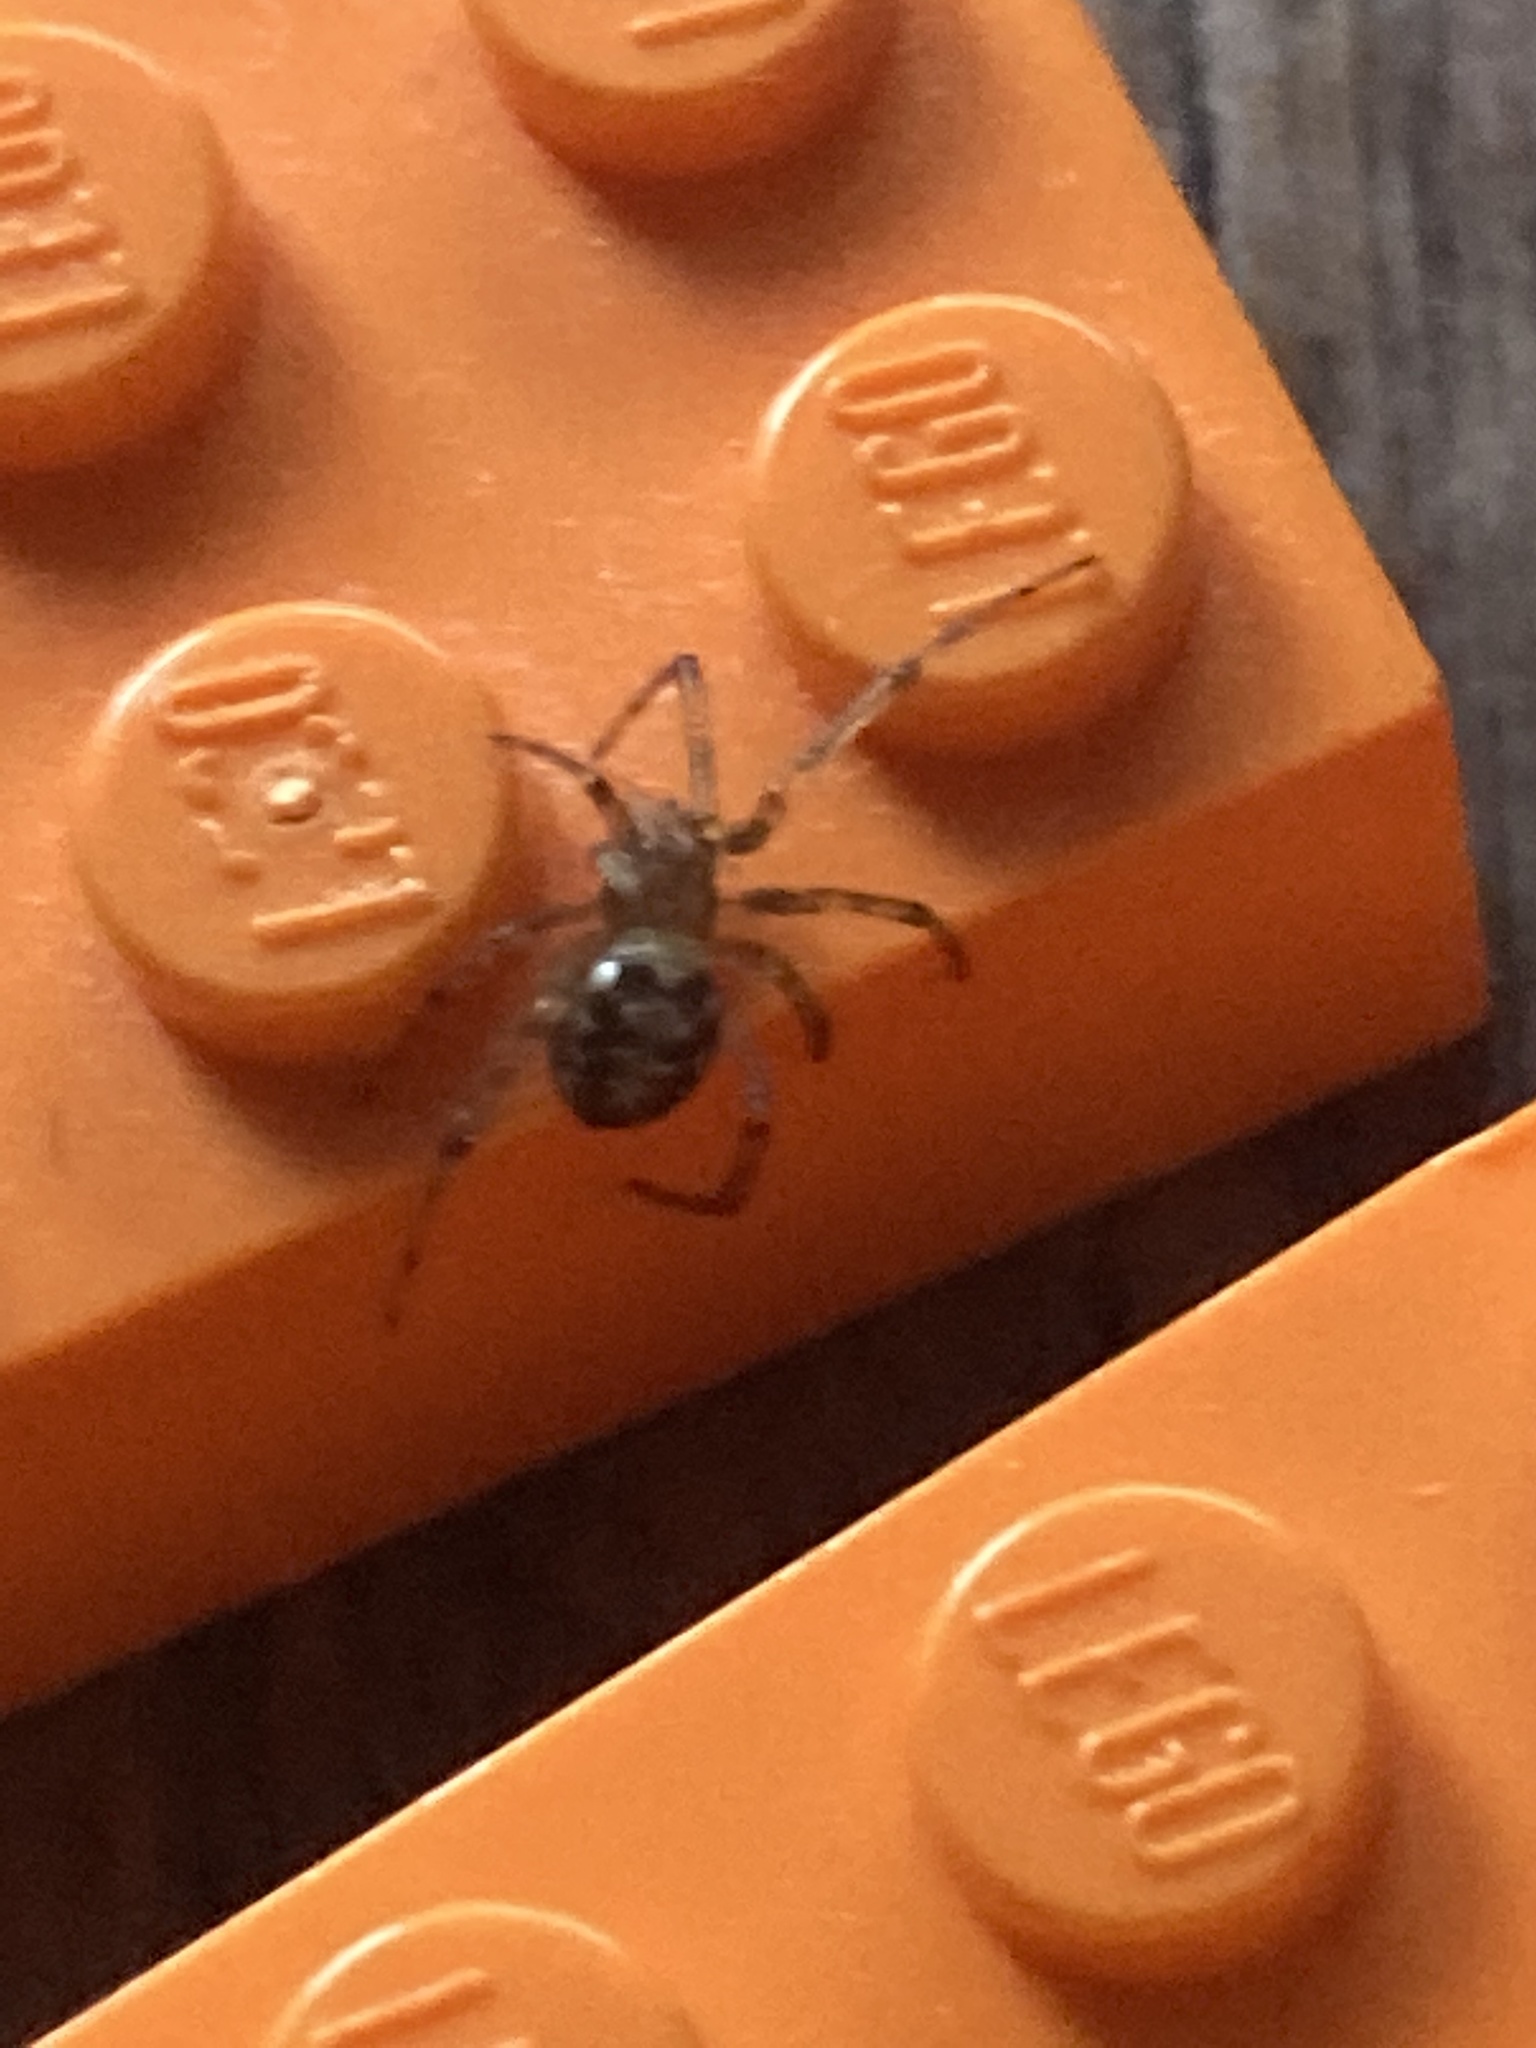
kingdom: Animalia
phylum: Arthropoda
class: Arachnida
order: Araneae
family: Theridiidae
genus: Steatoda
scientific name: Steatoda triangulosa
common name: Triangulate bud spider
